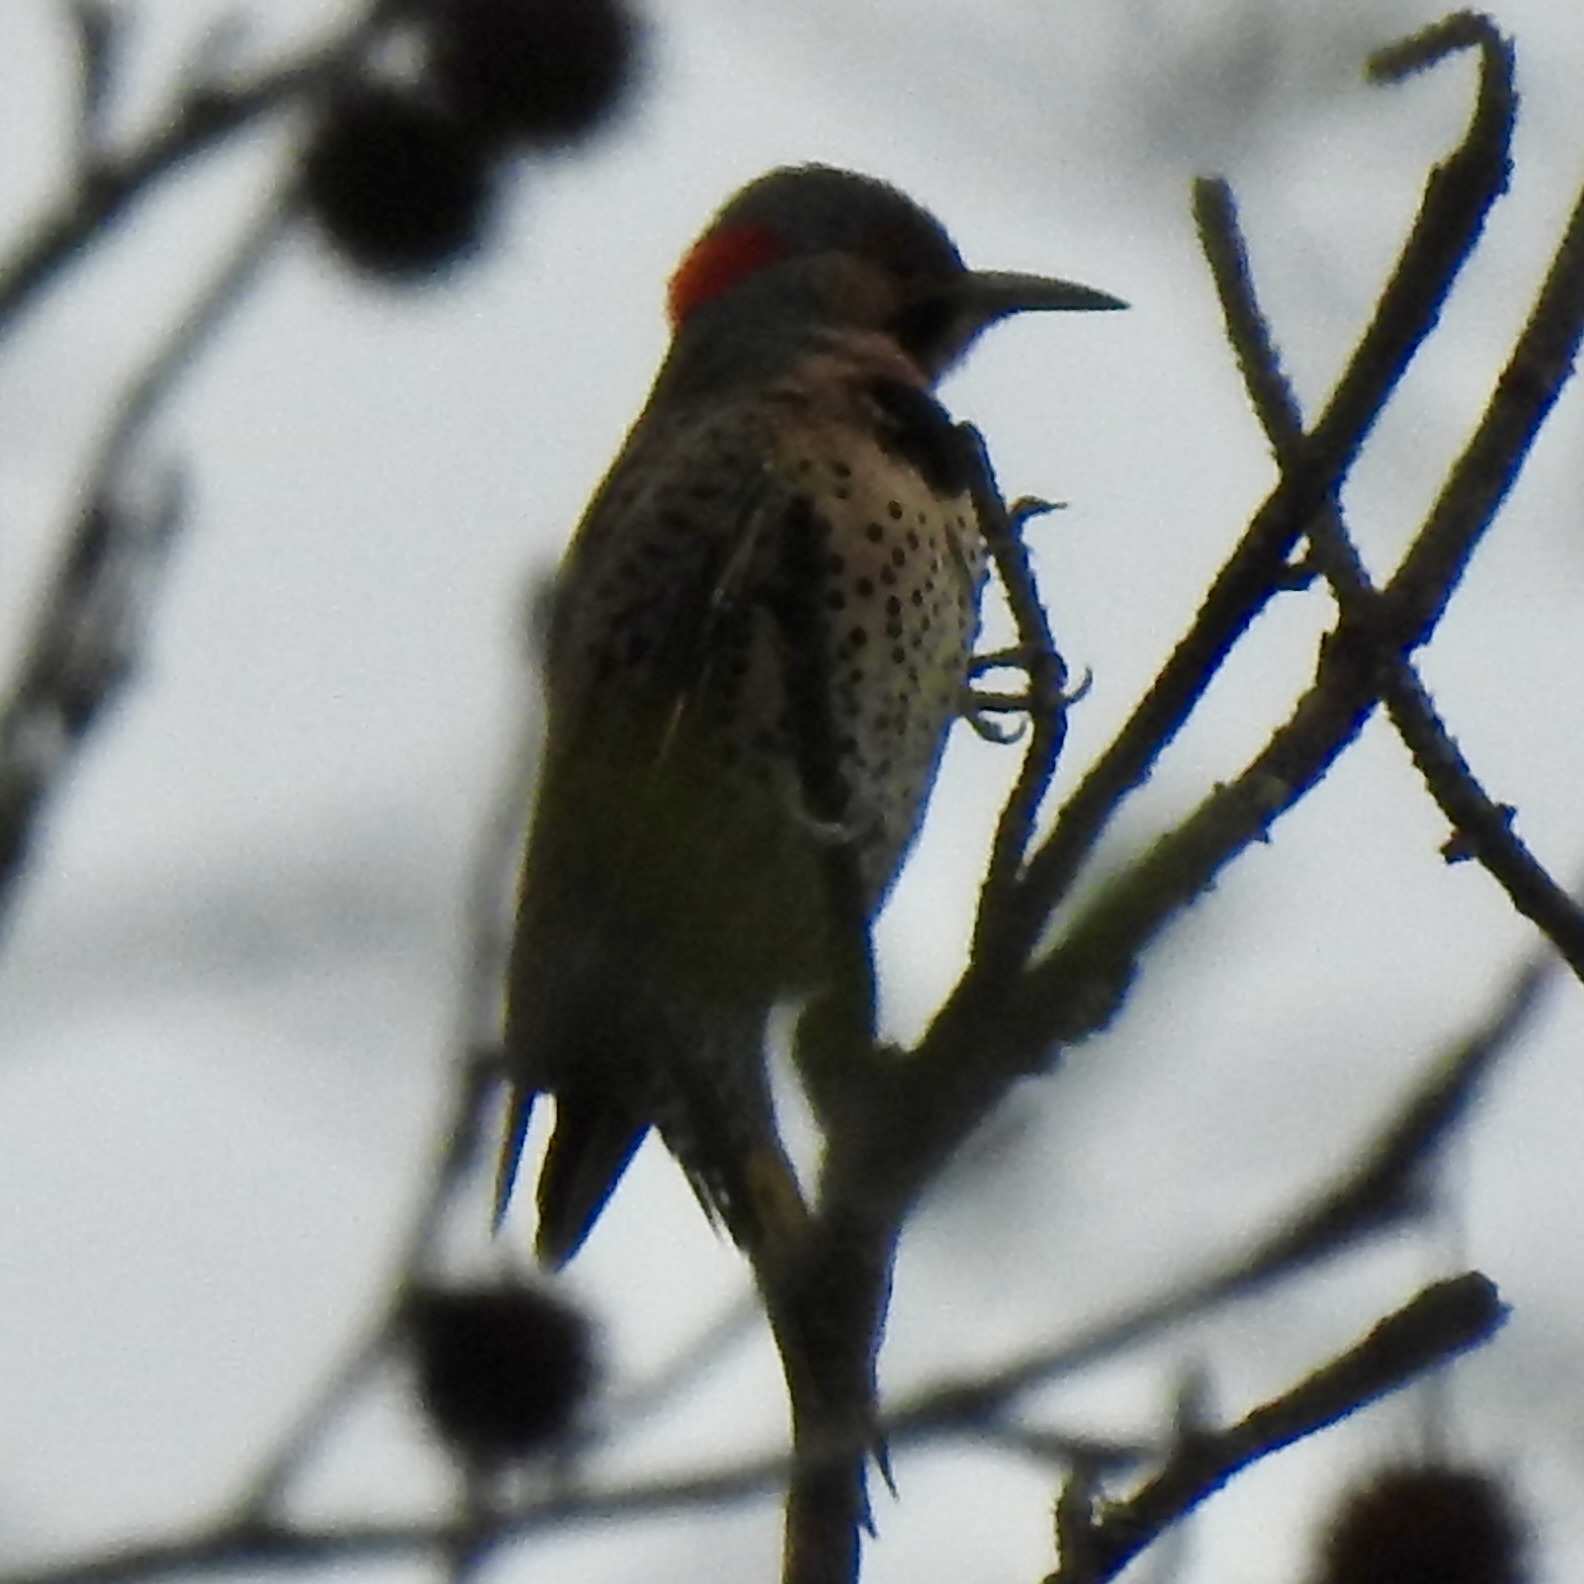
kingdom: Animalia
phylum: Chordata
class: Aves
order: Piciformes
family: Picidae
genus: Colaptes
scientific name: Colaptes auratus
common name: Northern flicker
